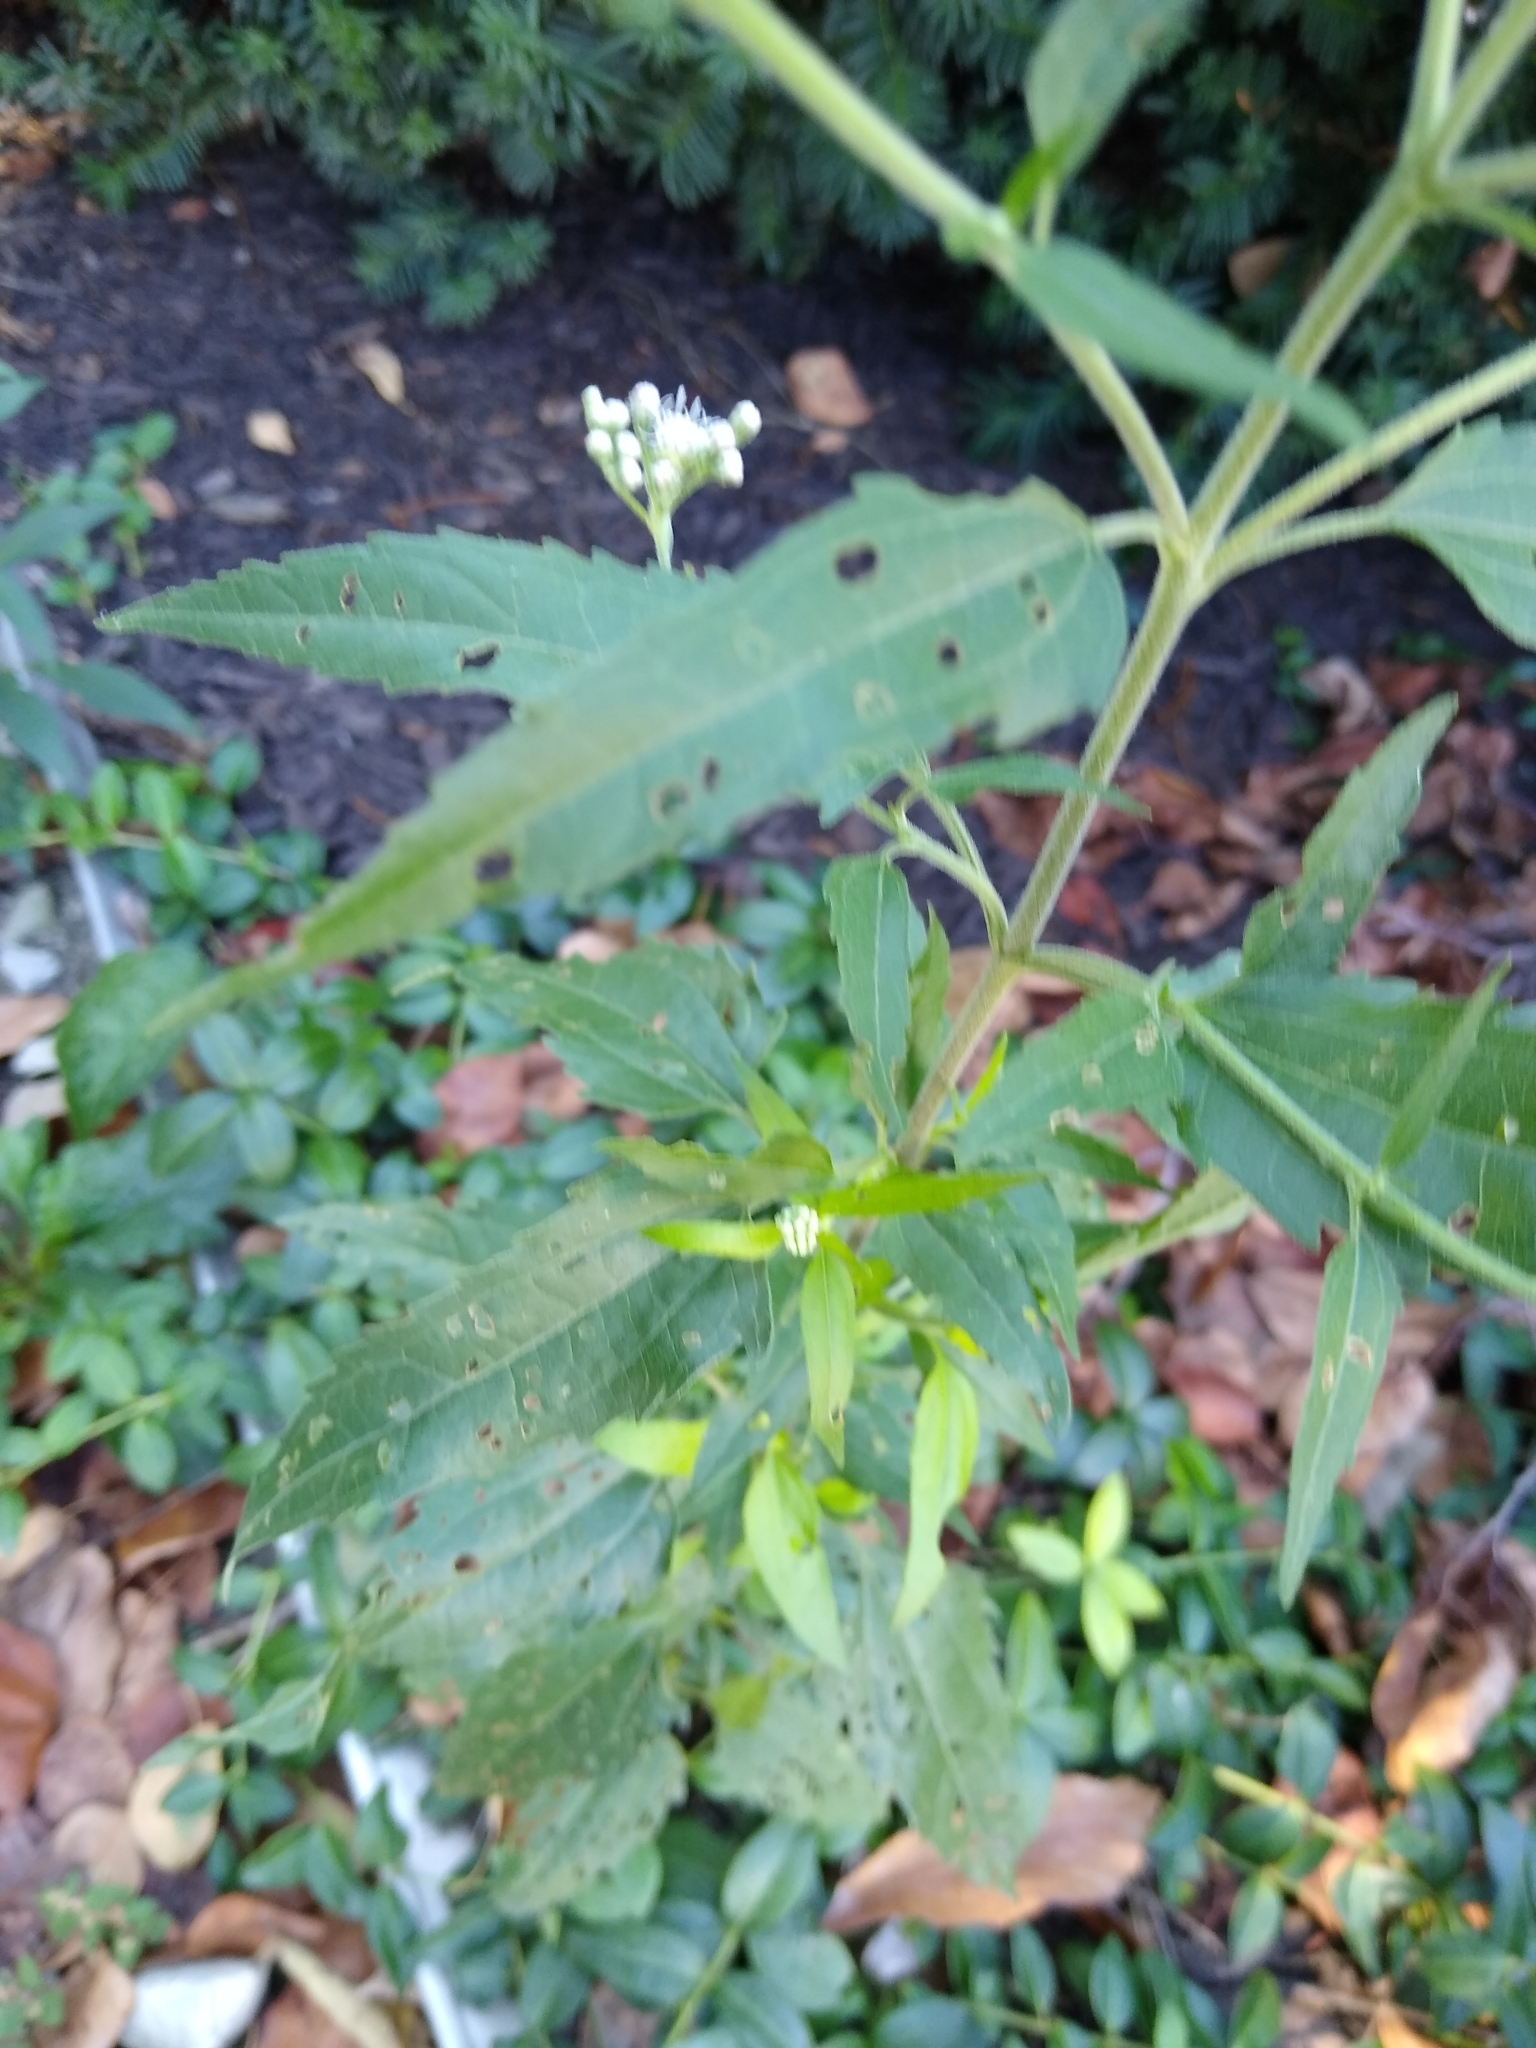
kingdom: Plantae
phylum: Tracheophyta
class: Magnoliopsida
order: Asterales
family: Asteraceae
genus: Eupatorium
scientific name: Eupatorium serotinum
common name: Late boneset
